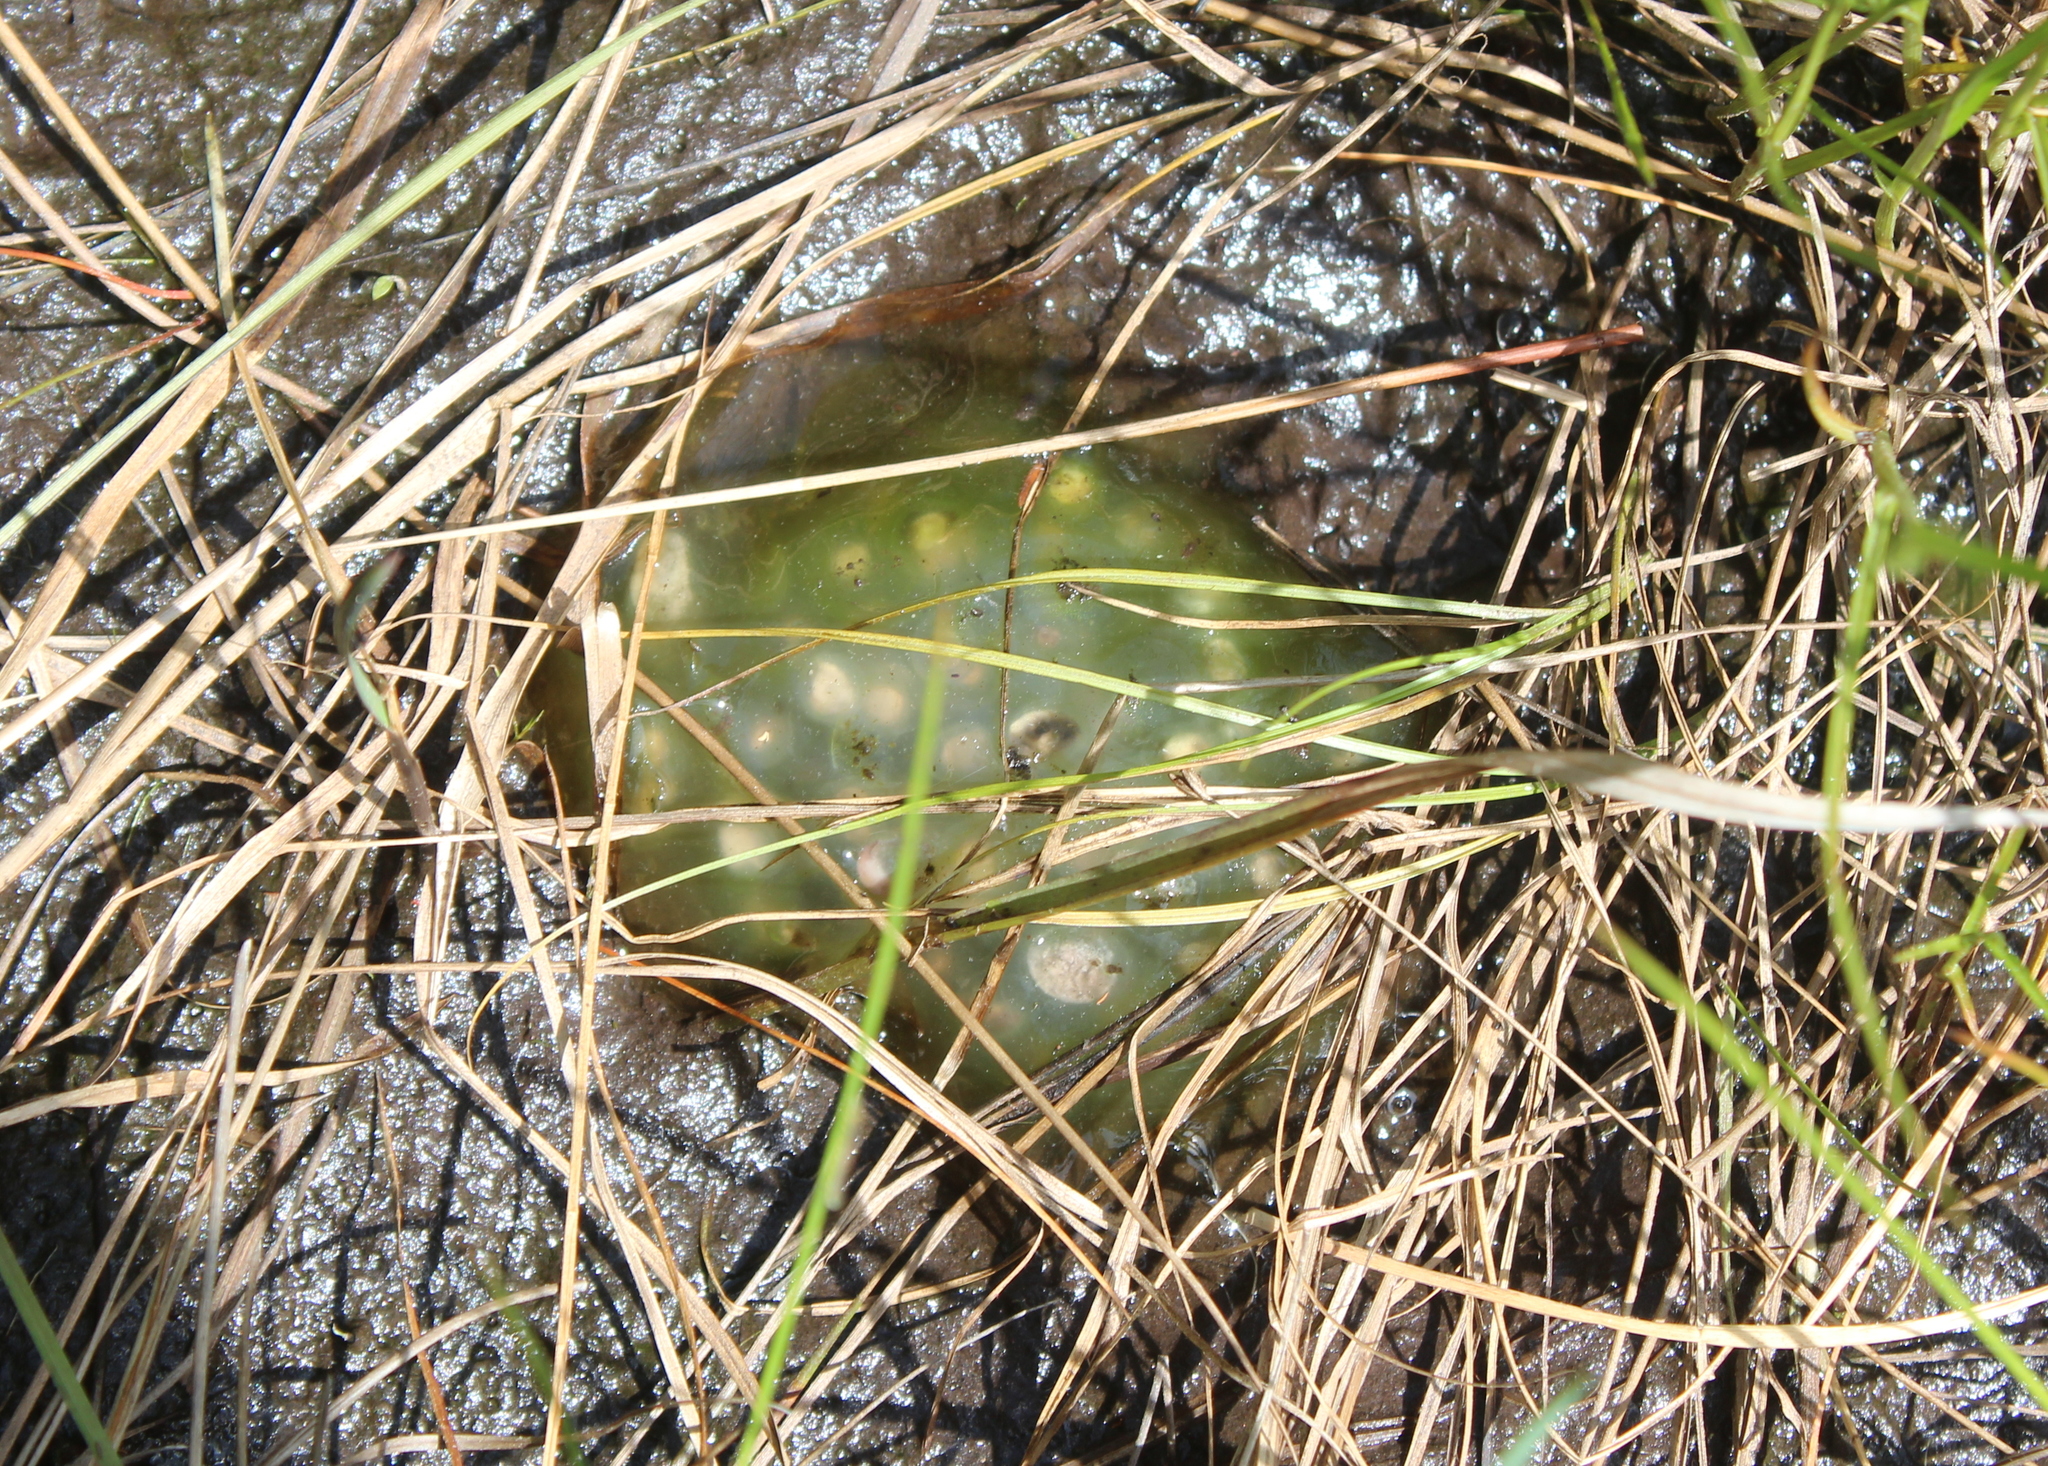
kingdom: Animalia
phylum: Chordata
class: Amphibia
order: Caudata
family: Ambystomatidae
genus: Ambystoma
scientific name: Ambystoma maculatum
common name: Spotted salamander
